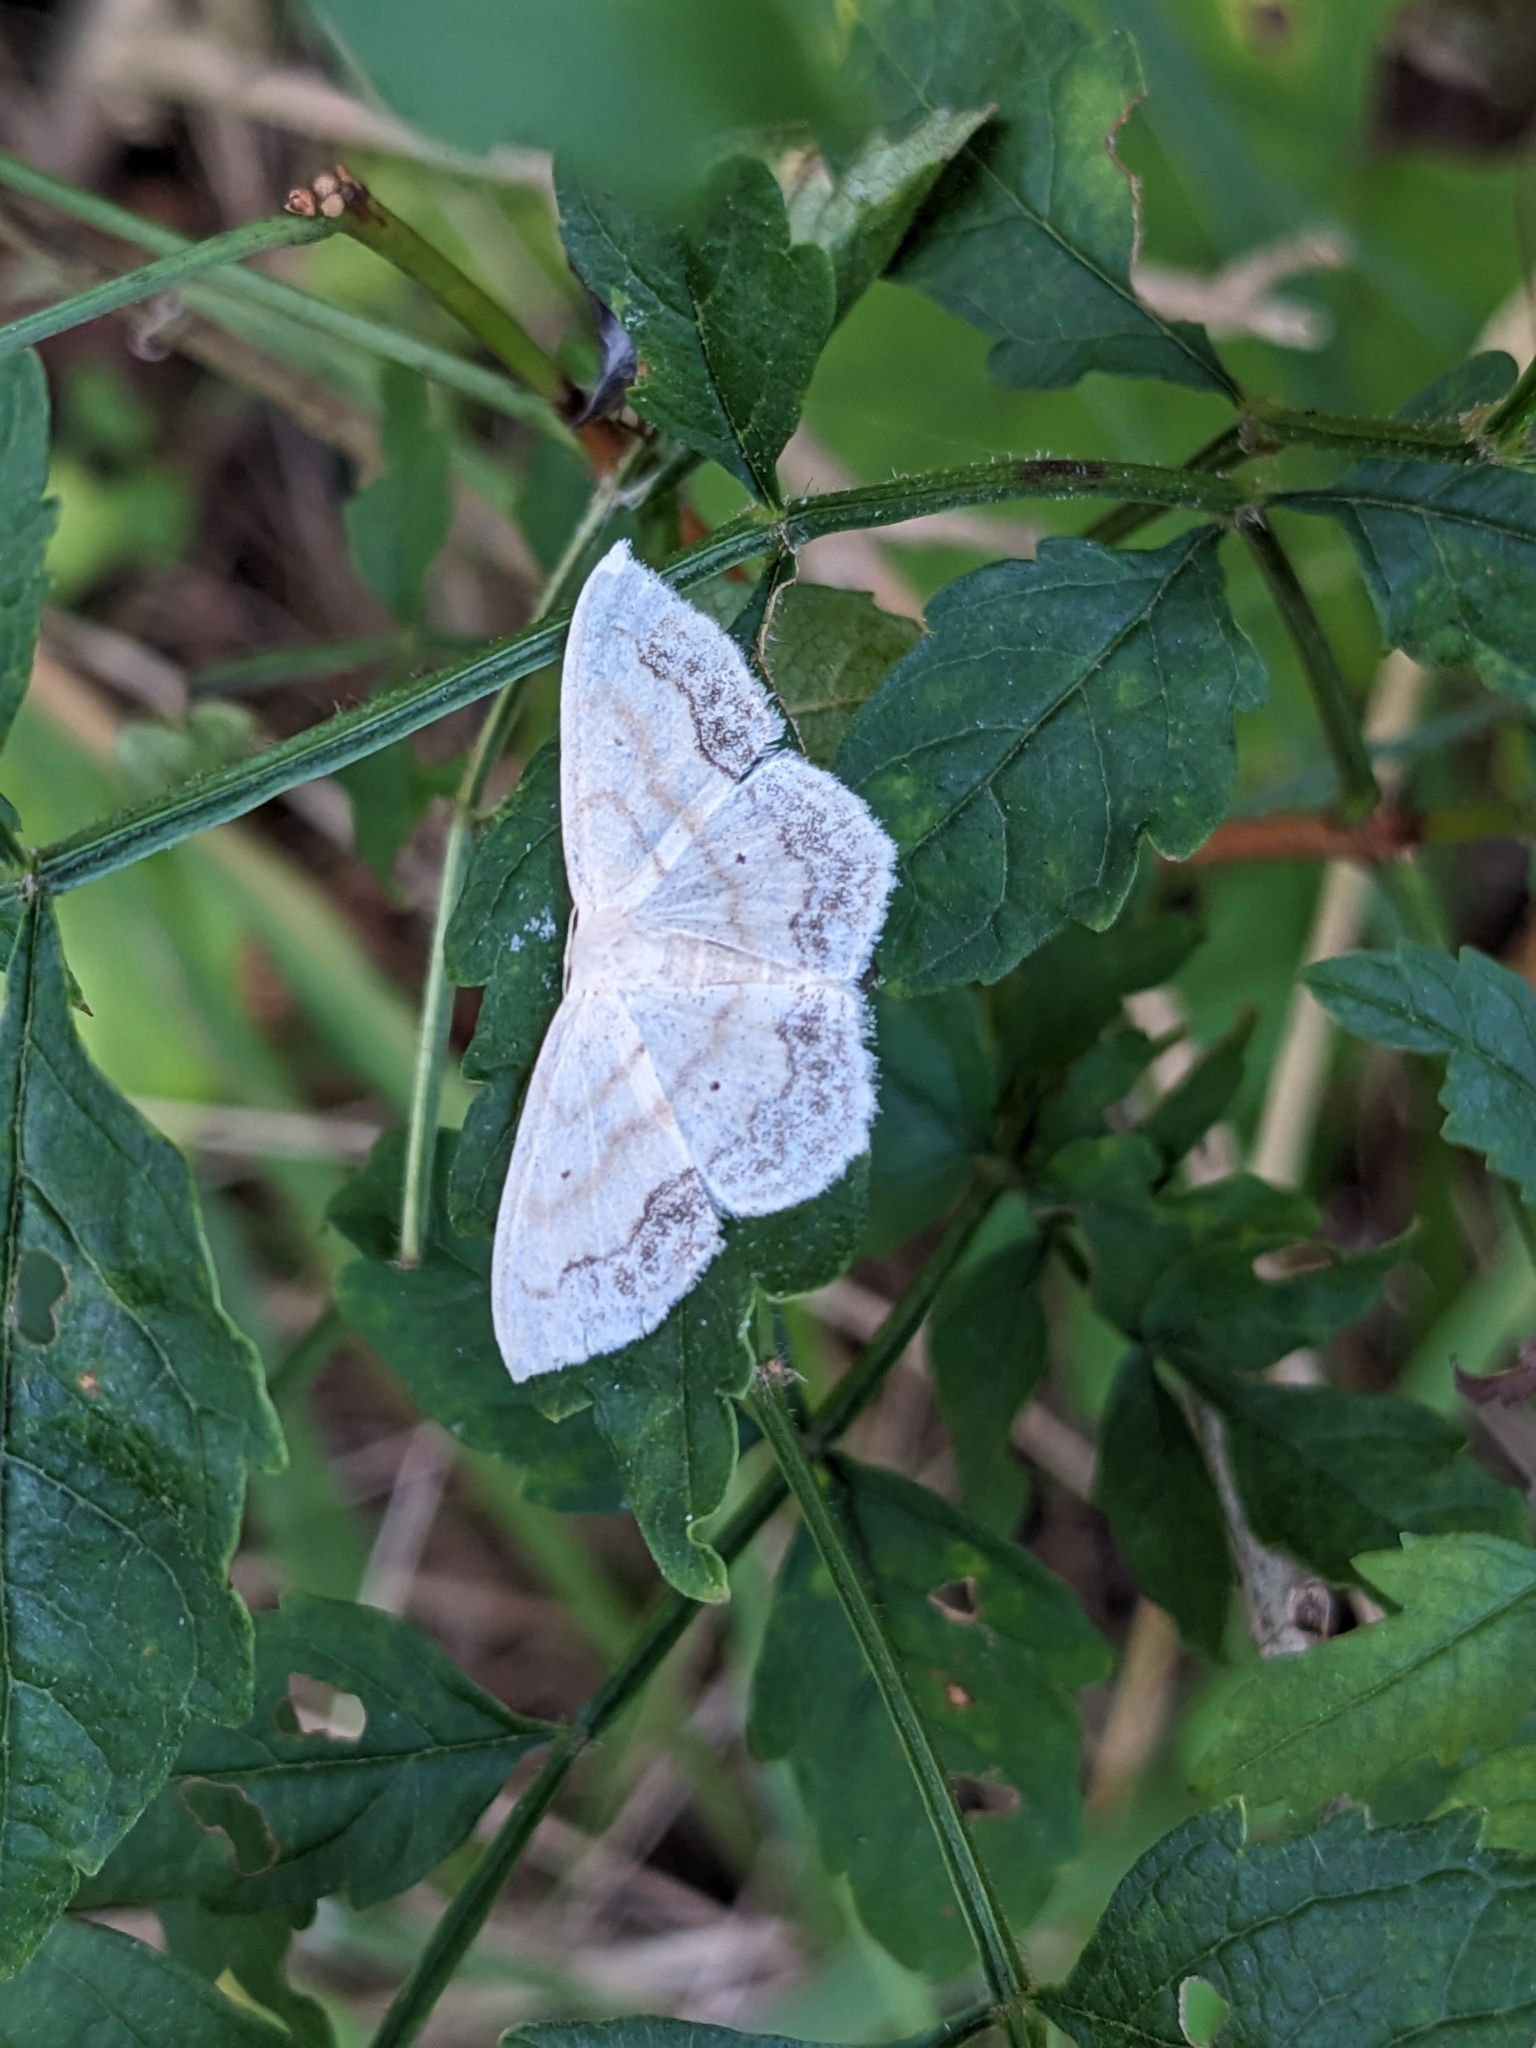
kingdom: Animalia
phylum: Arthropoda
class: Insecta
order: Lepidoptera
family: Geometridae
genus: Scopula
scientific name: Scopula limboundata
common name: Large lace border
